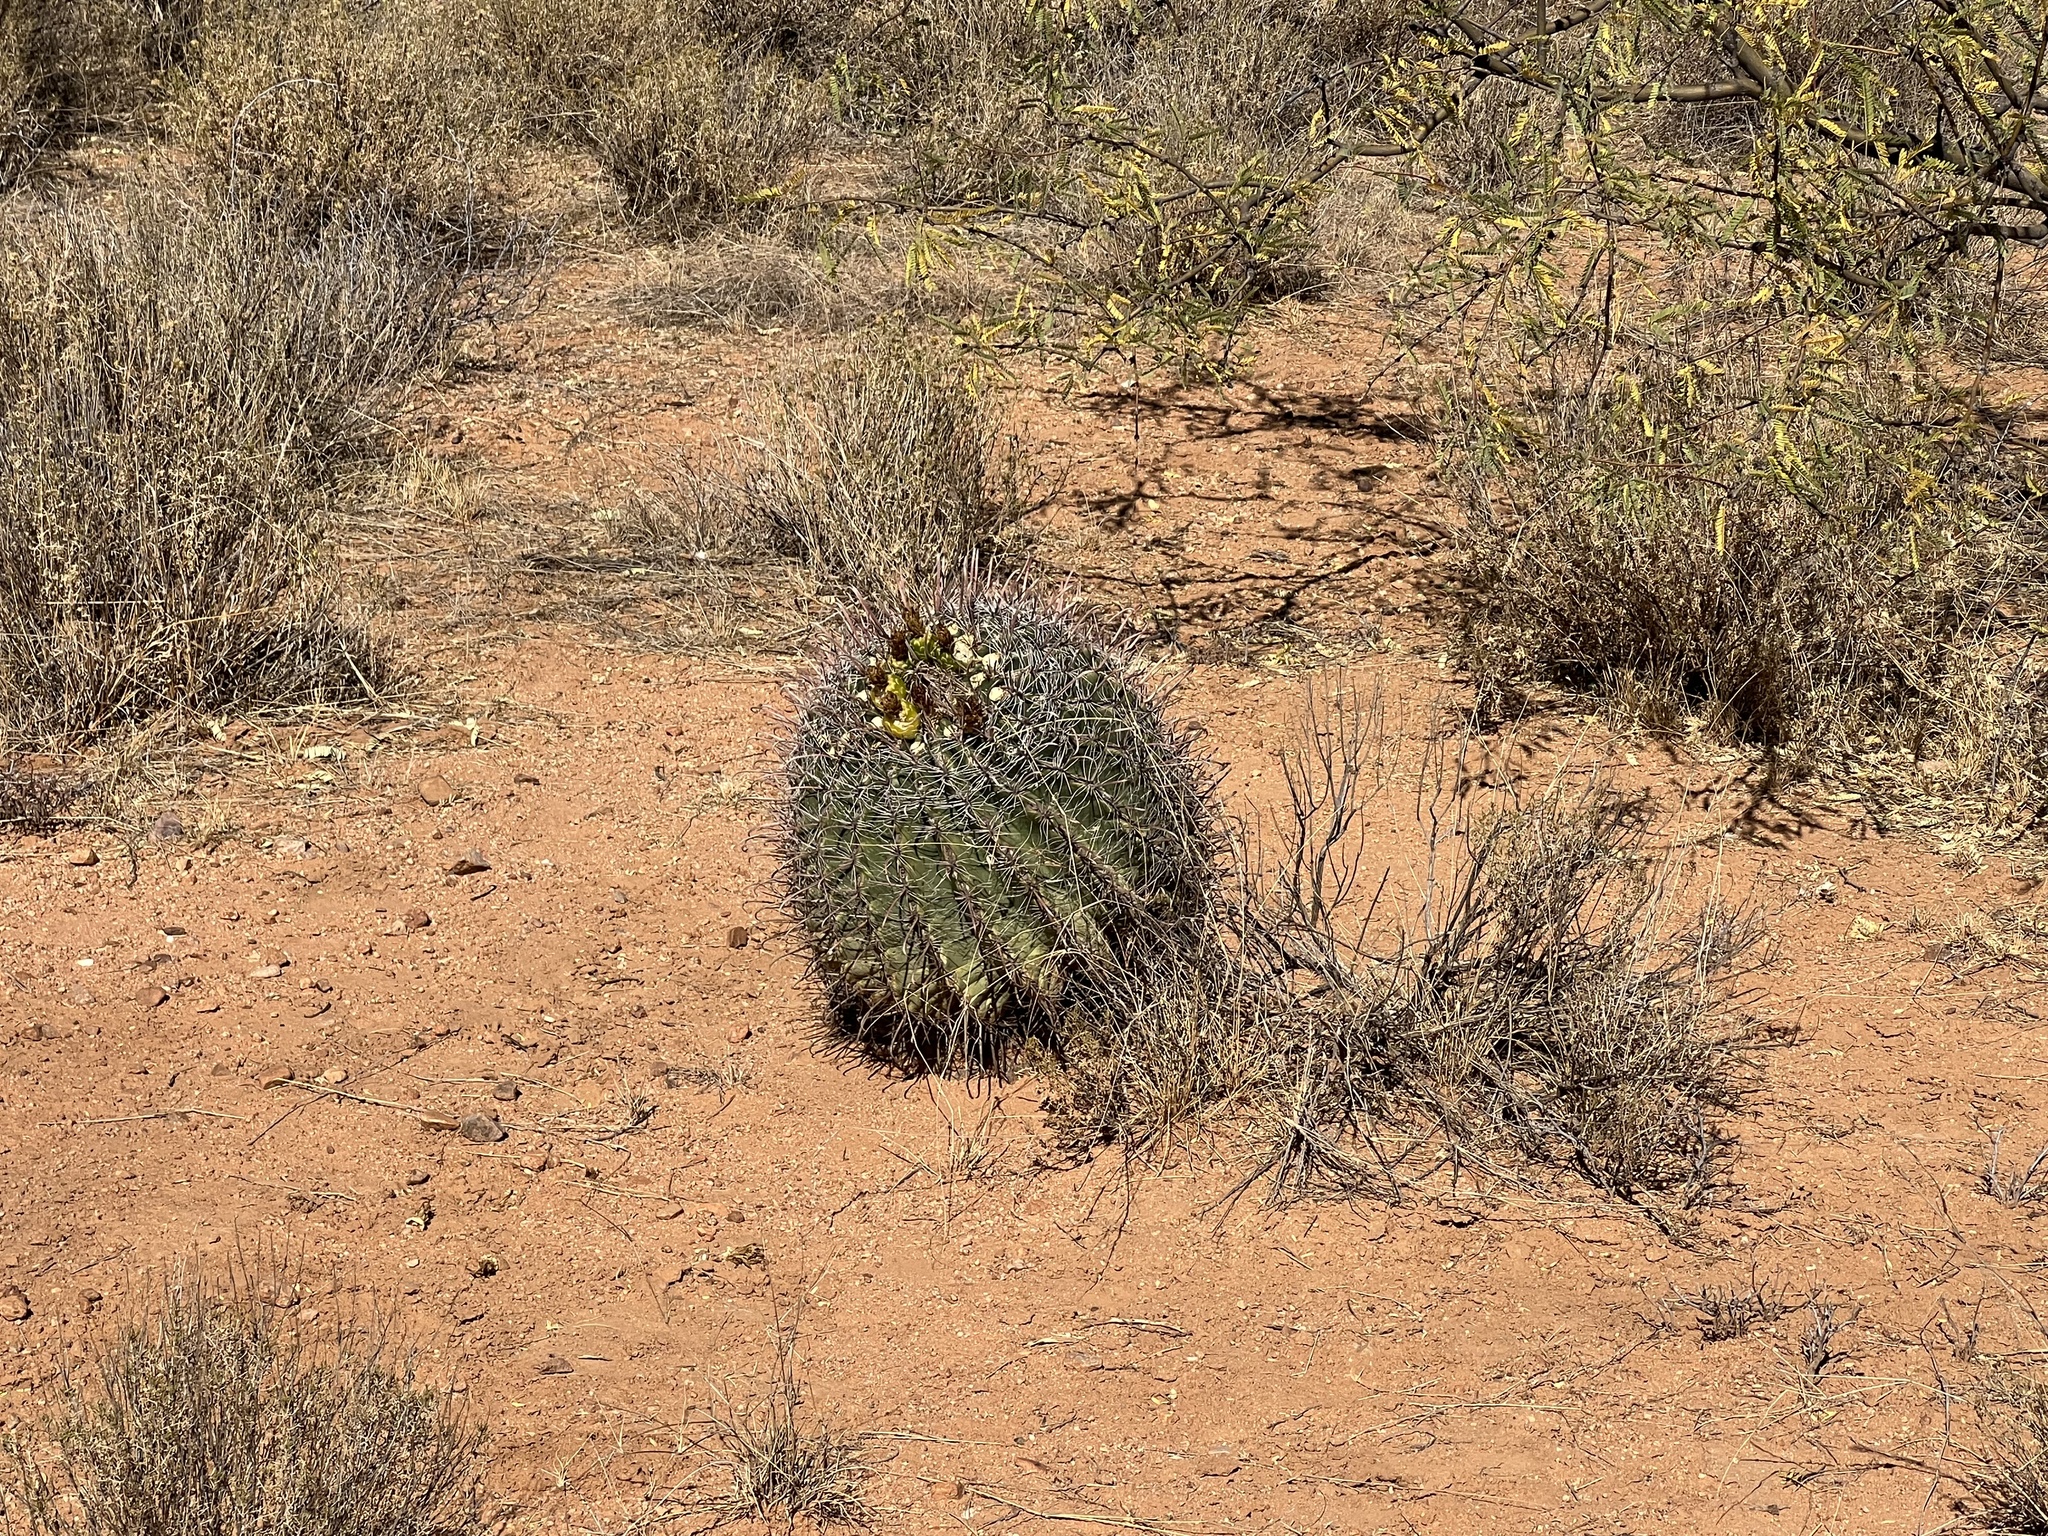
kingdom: Plantae
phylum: Tracheophyta
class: Magnoliopsida
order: Caryophyllales
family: Cactaceae
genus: Ferocactus
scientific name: Ferocactus wislizeni
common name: Candy barrel cactus
